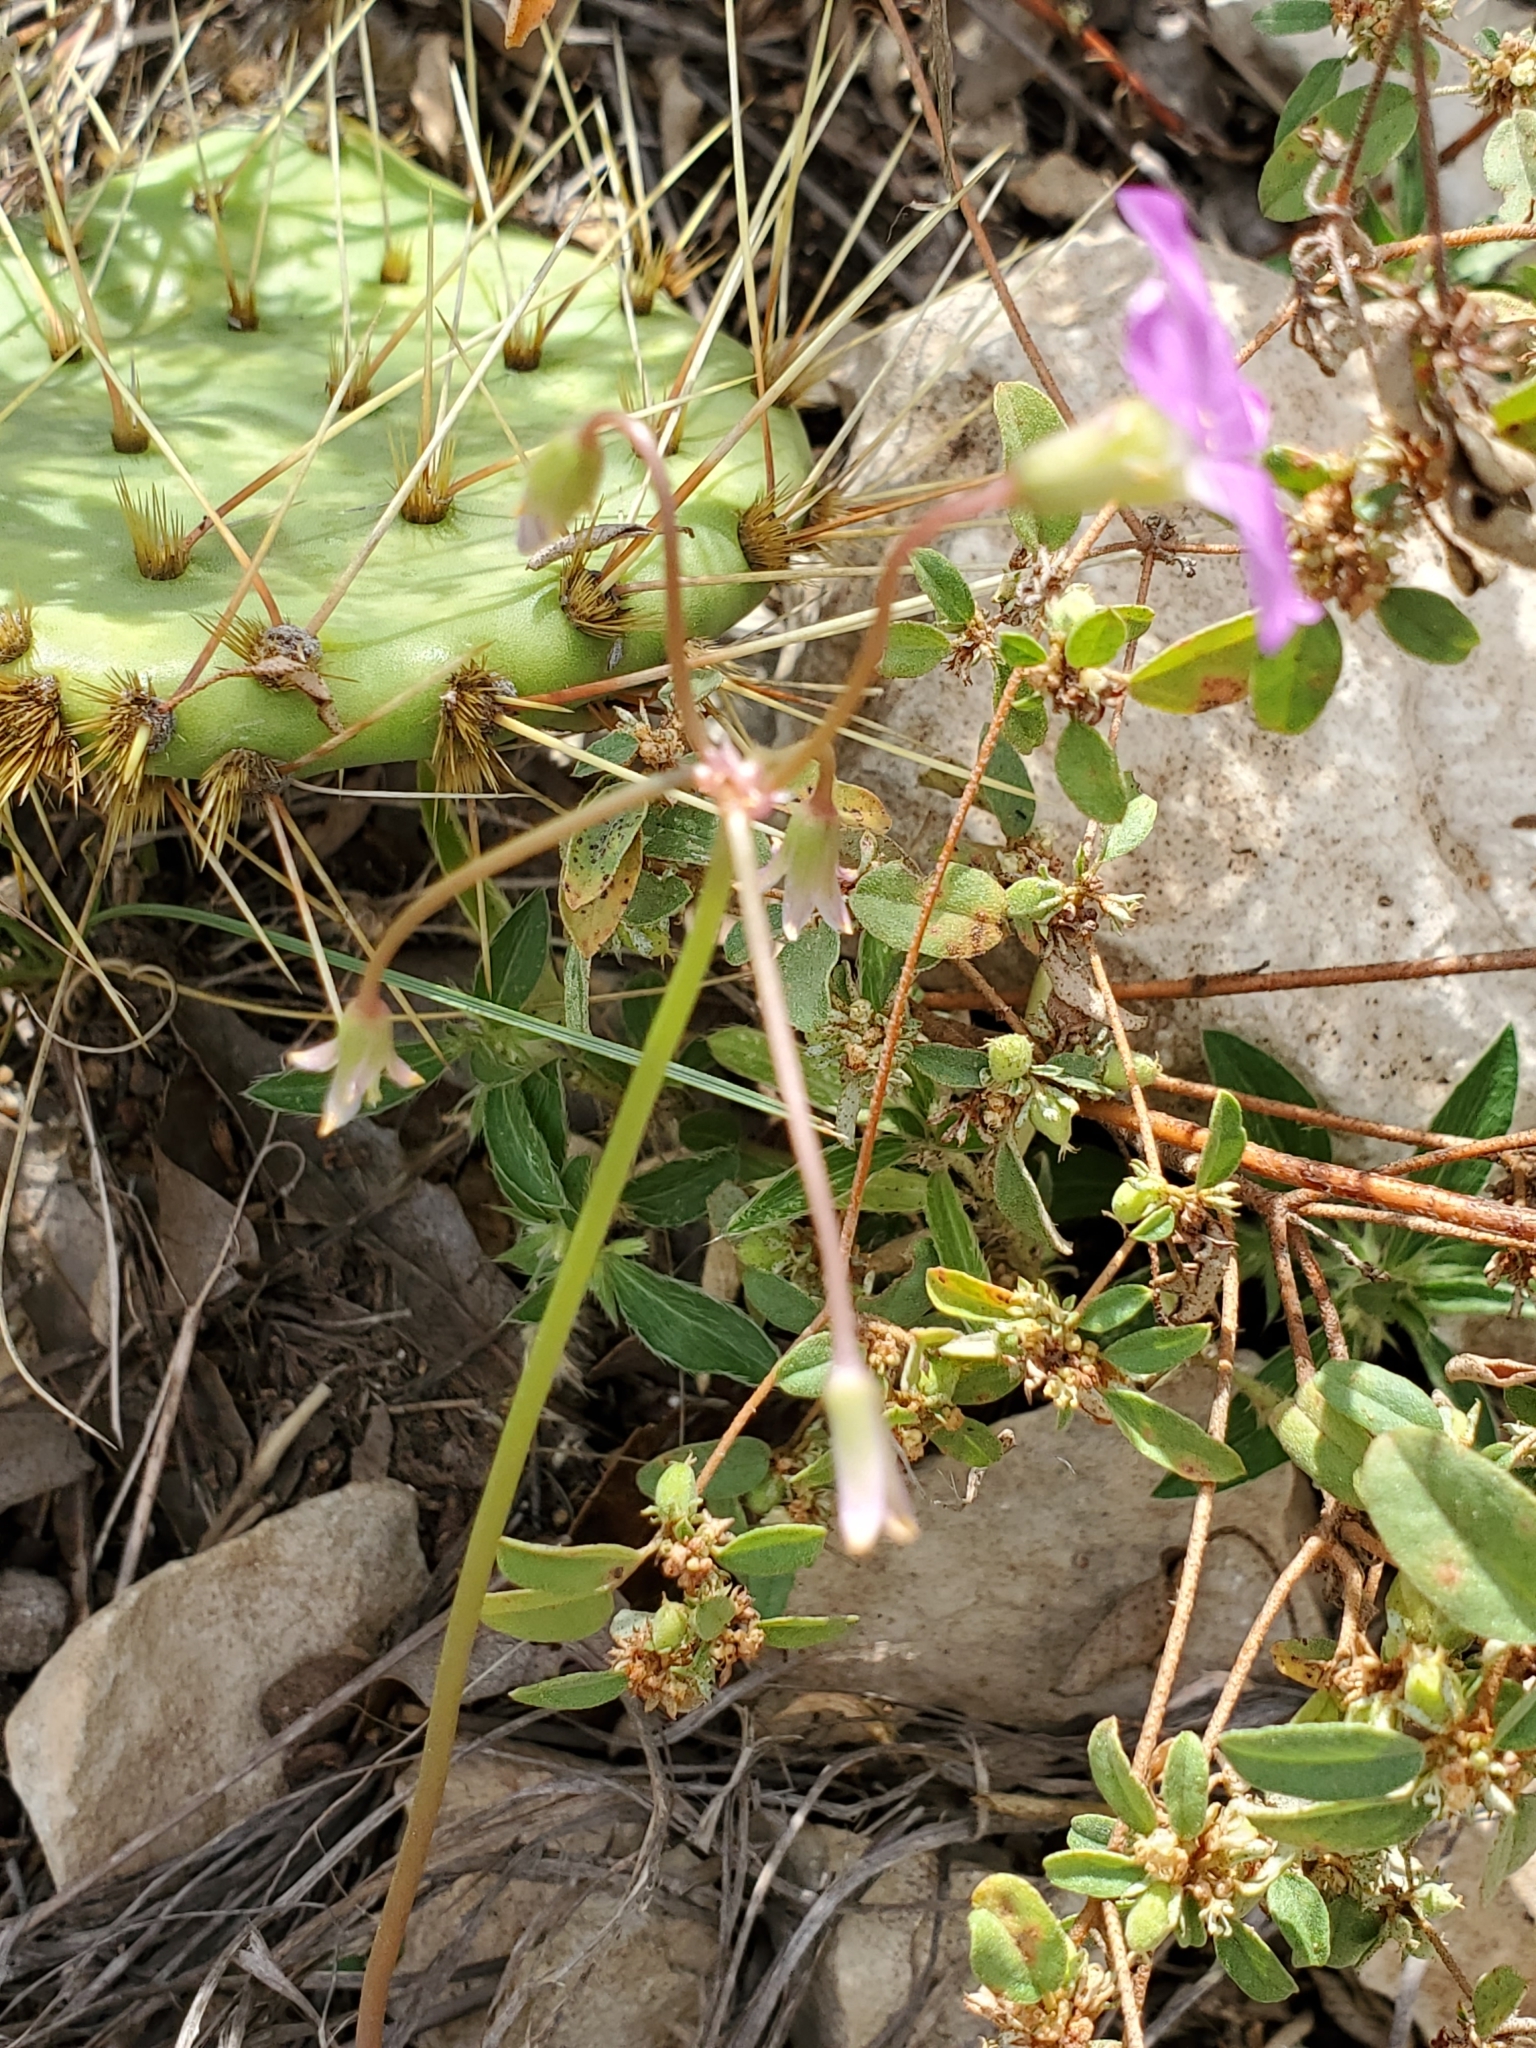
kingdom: Plantae
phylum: Tracheophyta
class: Magnoliopsida
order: Oxalidales
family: Oxalidaceae
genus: Oxalis
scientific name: Oxalis drummondii
